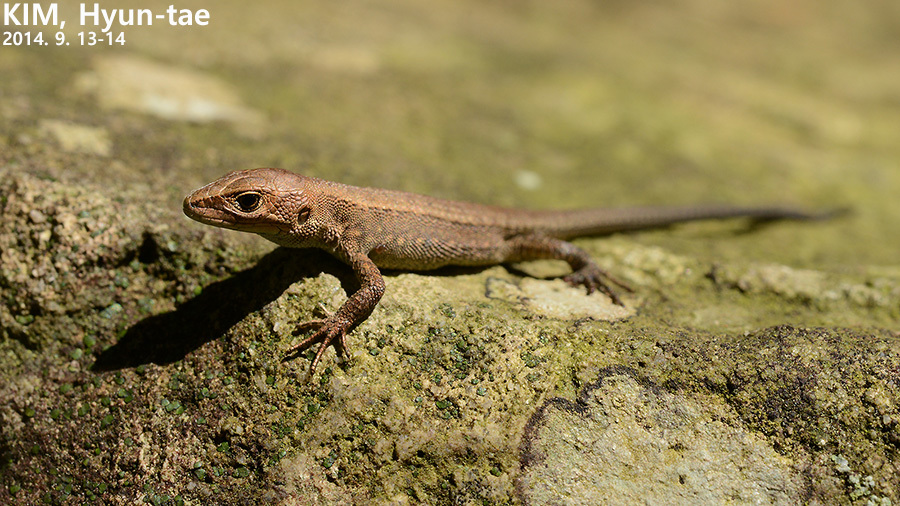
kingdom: Animalia
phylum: Chordata
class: Squamata
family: Lacertidae
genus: Takydromus
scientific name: Takydromus amurensis
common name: Amur grass lizard
